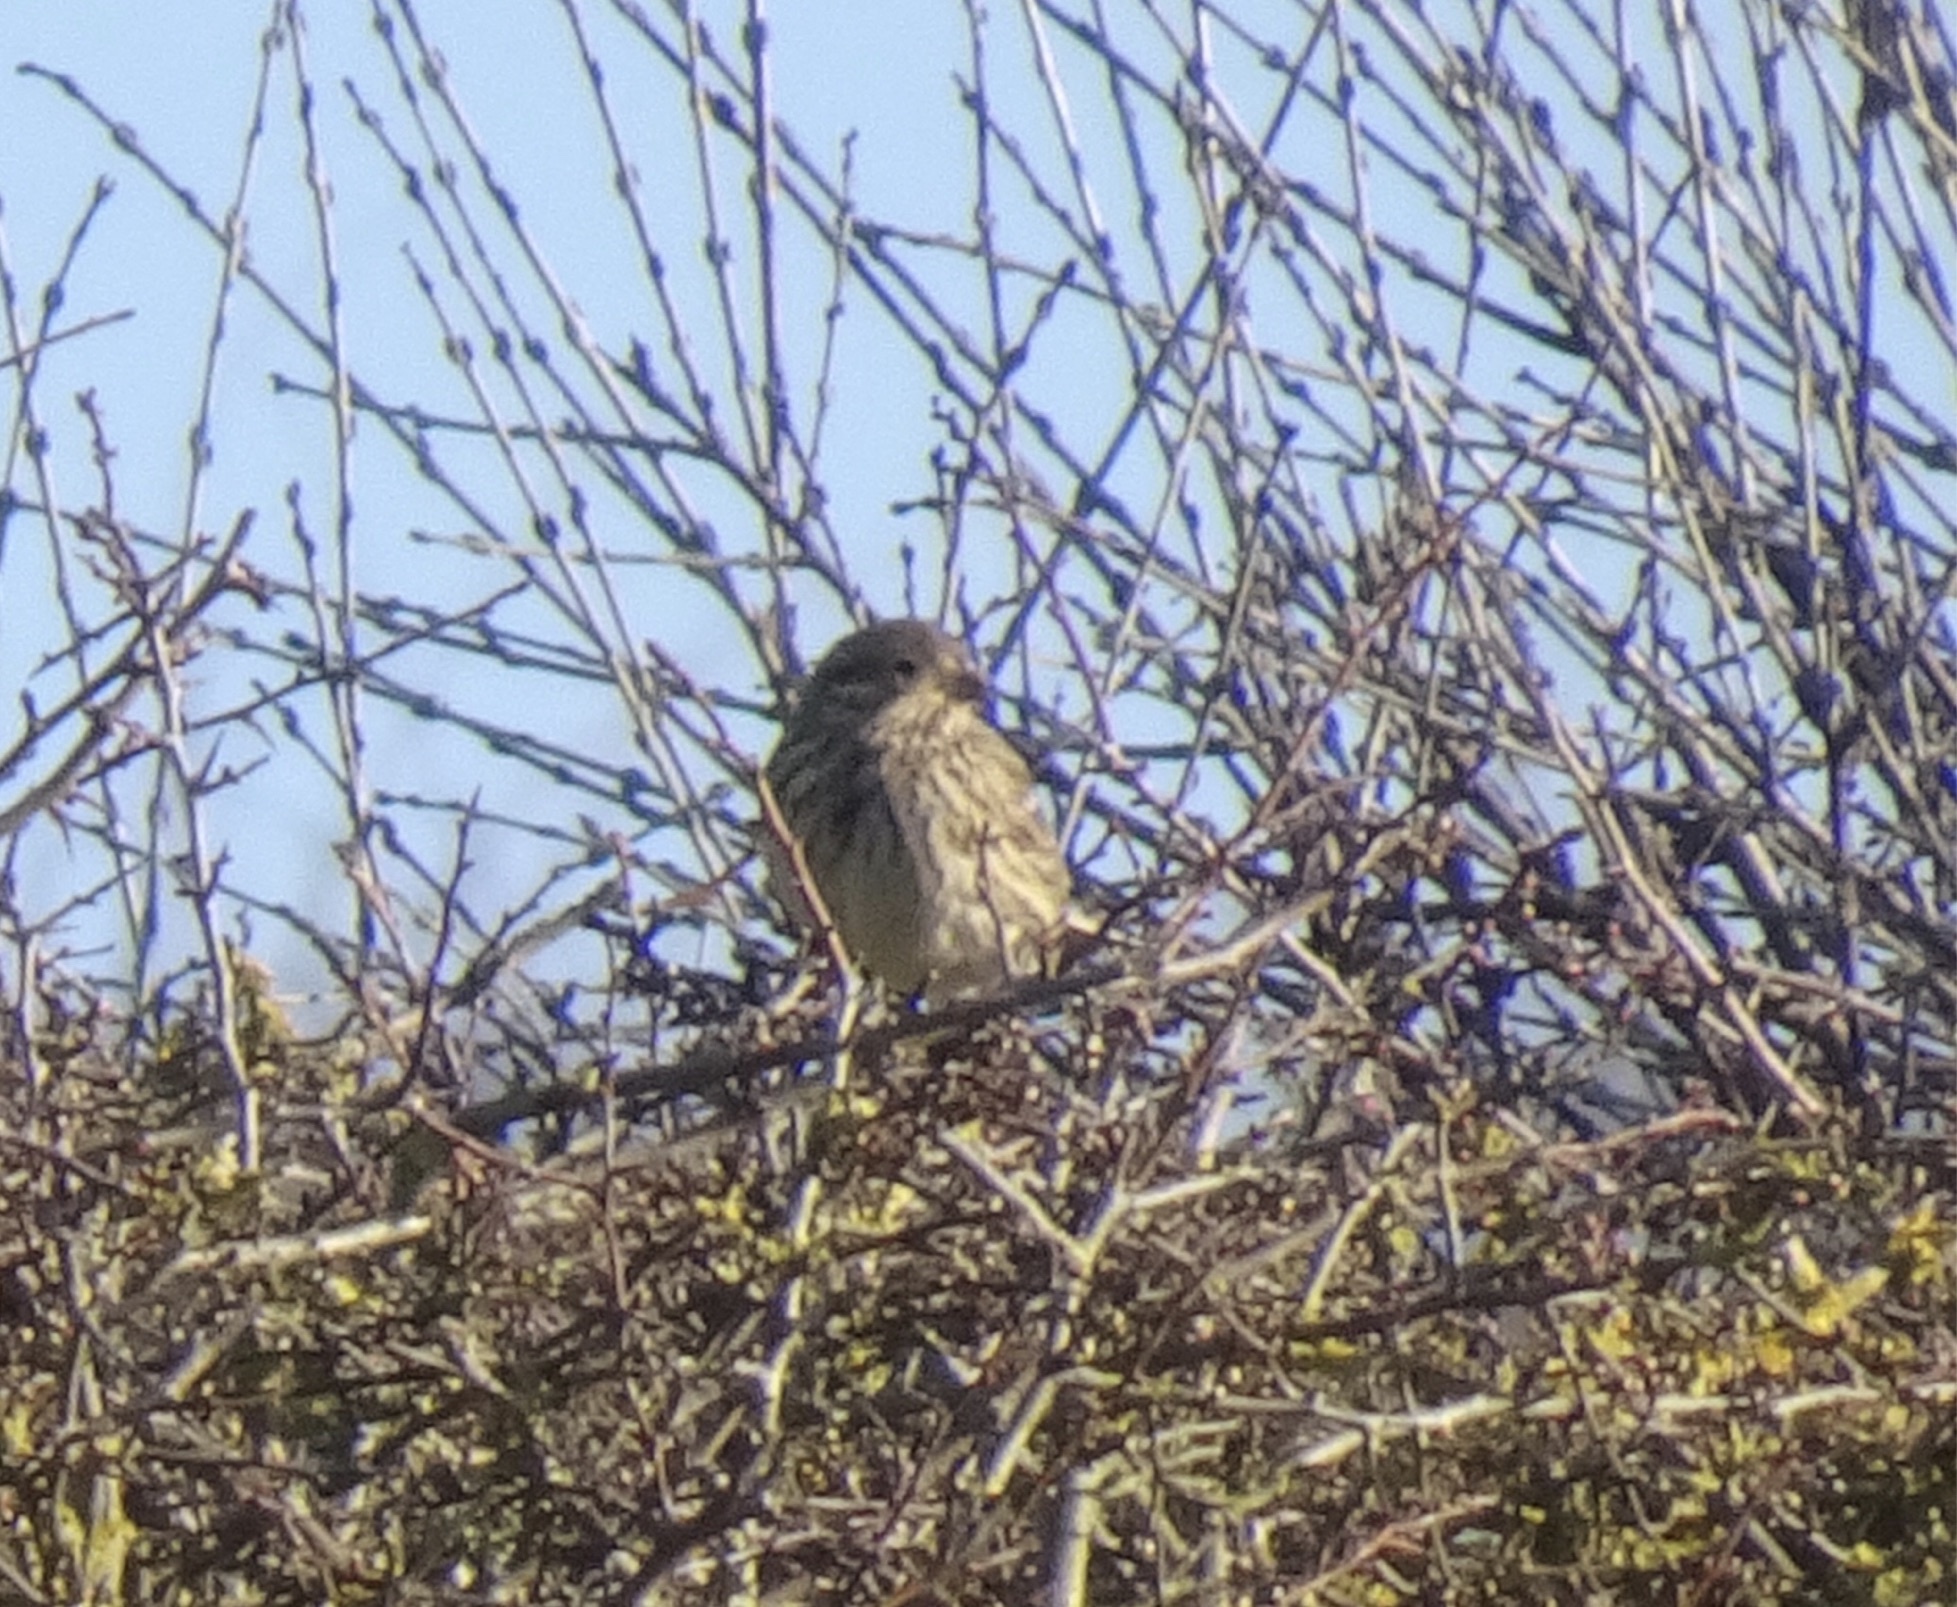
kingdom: Animalia
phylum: Chordata
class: Aves
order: Passeriformes
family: Emberizidae
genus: Emberiza
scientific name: Emberiza calandra
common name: Corn bunting
